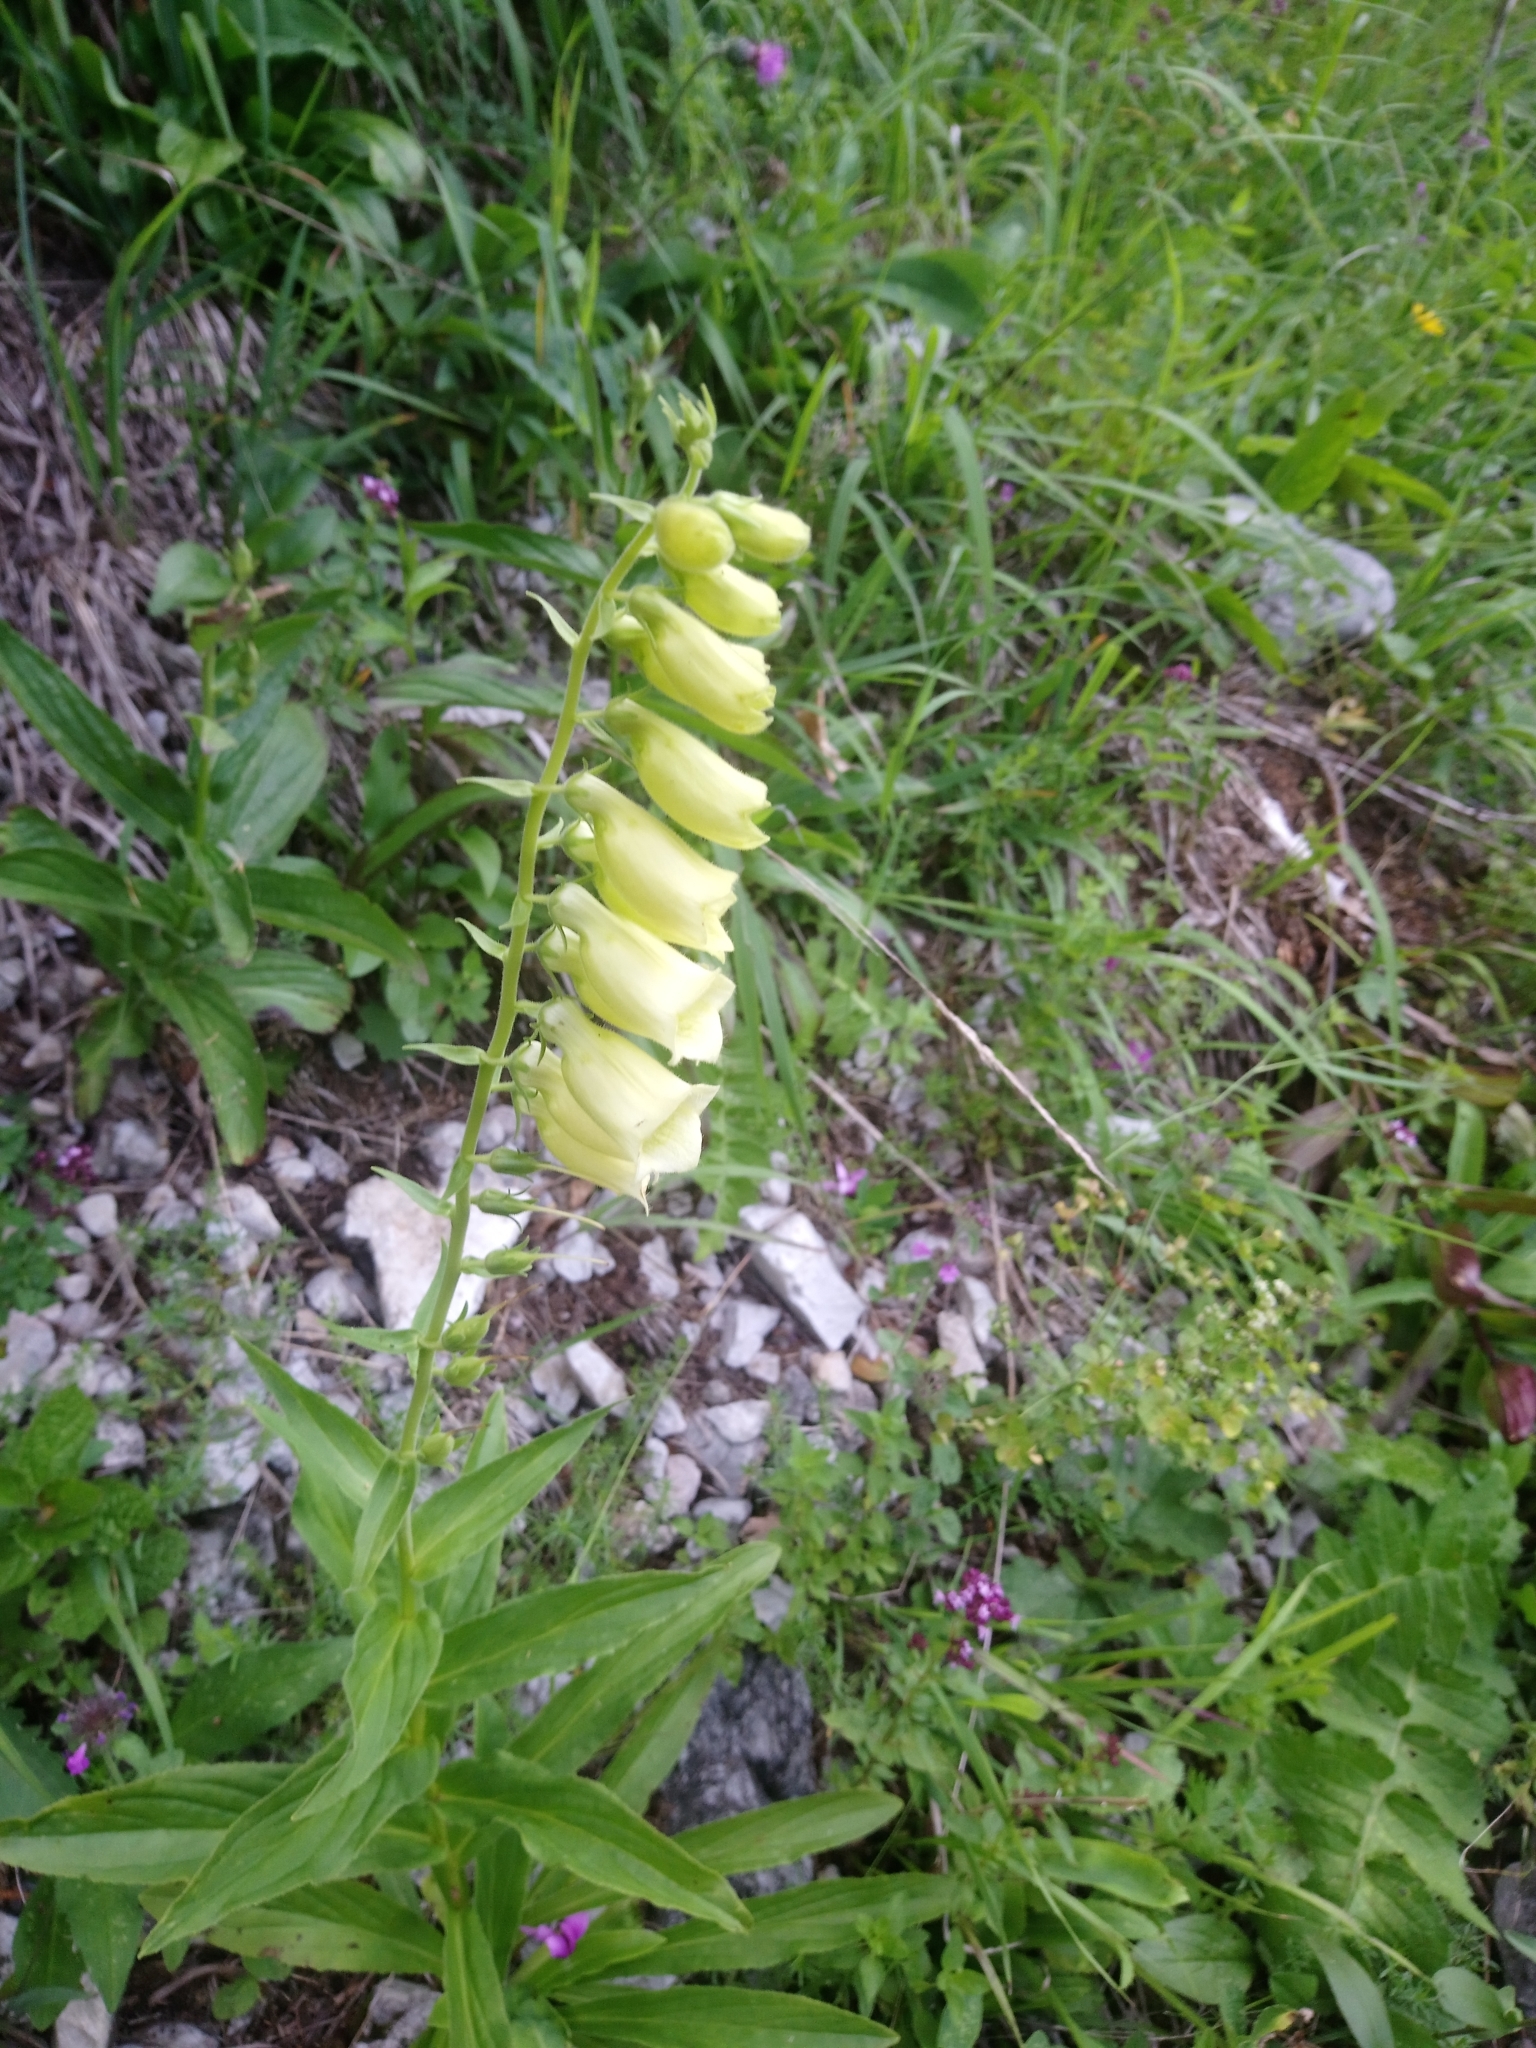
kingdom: Plantae
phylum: Tracheophyta
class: Magnoliopsida
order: Lamiales
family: Plantaginaceae
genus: Digitalis
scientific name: Digitalis grandiflora
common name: Yellow foxglove
